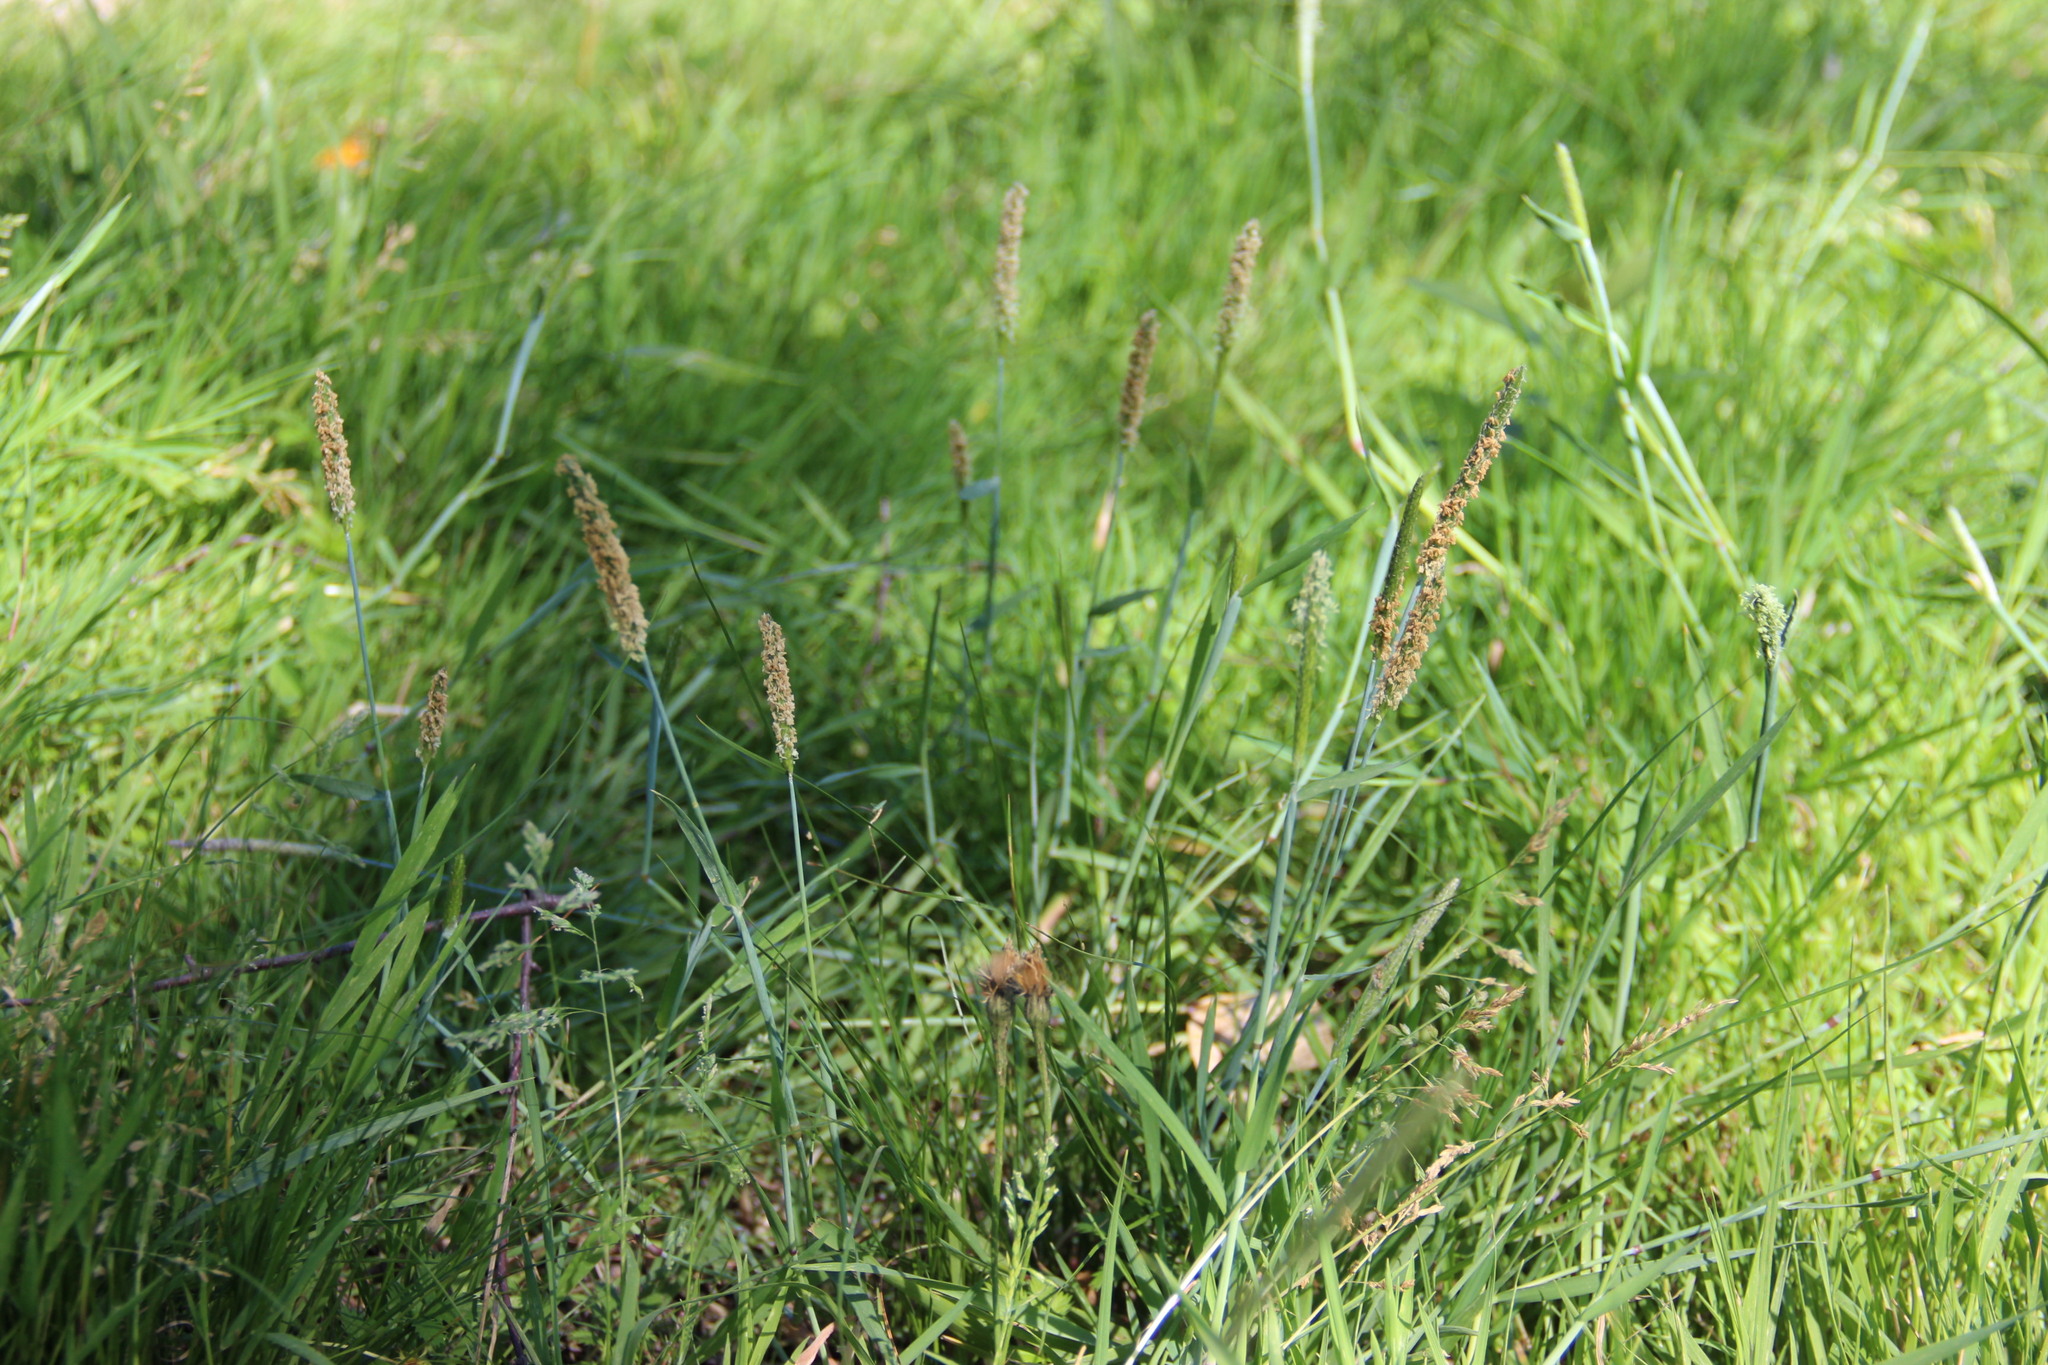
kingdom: Plantae
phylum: Tracheophyta
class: Liliopsida
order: Poales
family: Poaceae
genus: Alopecurus
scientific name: Alopecurus aequalis
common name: Orange foxtail
